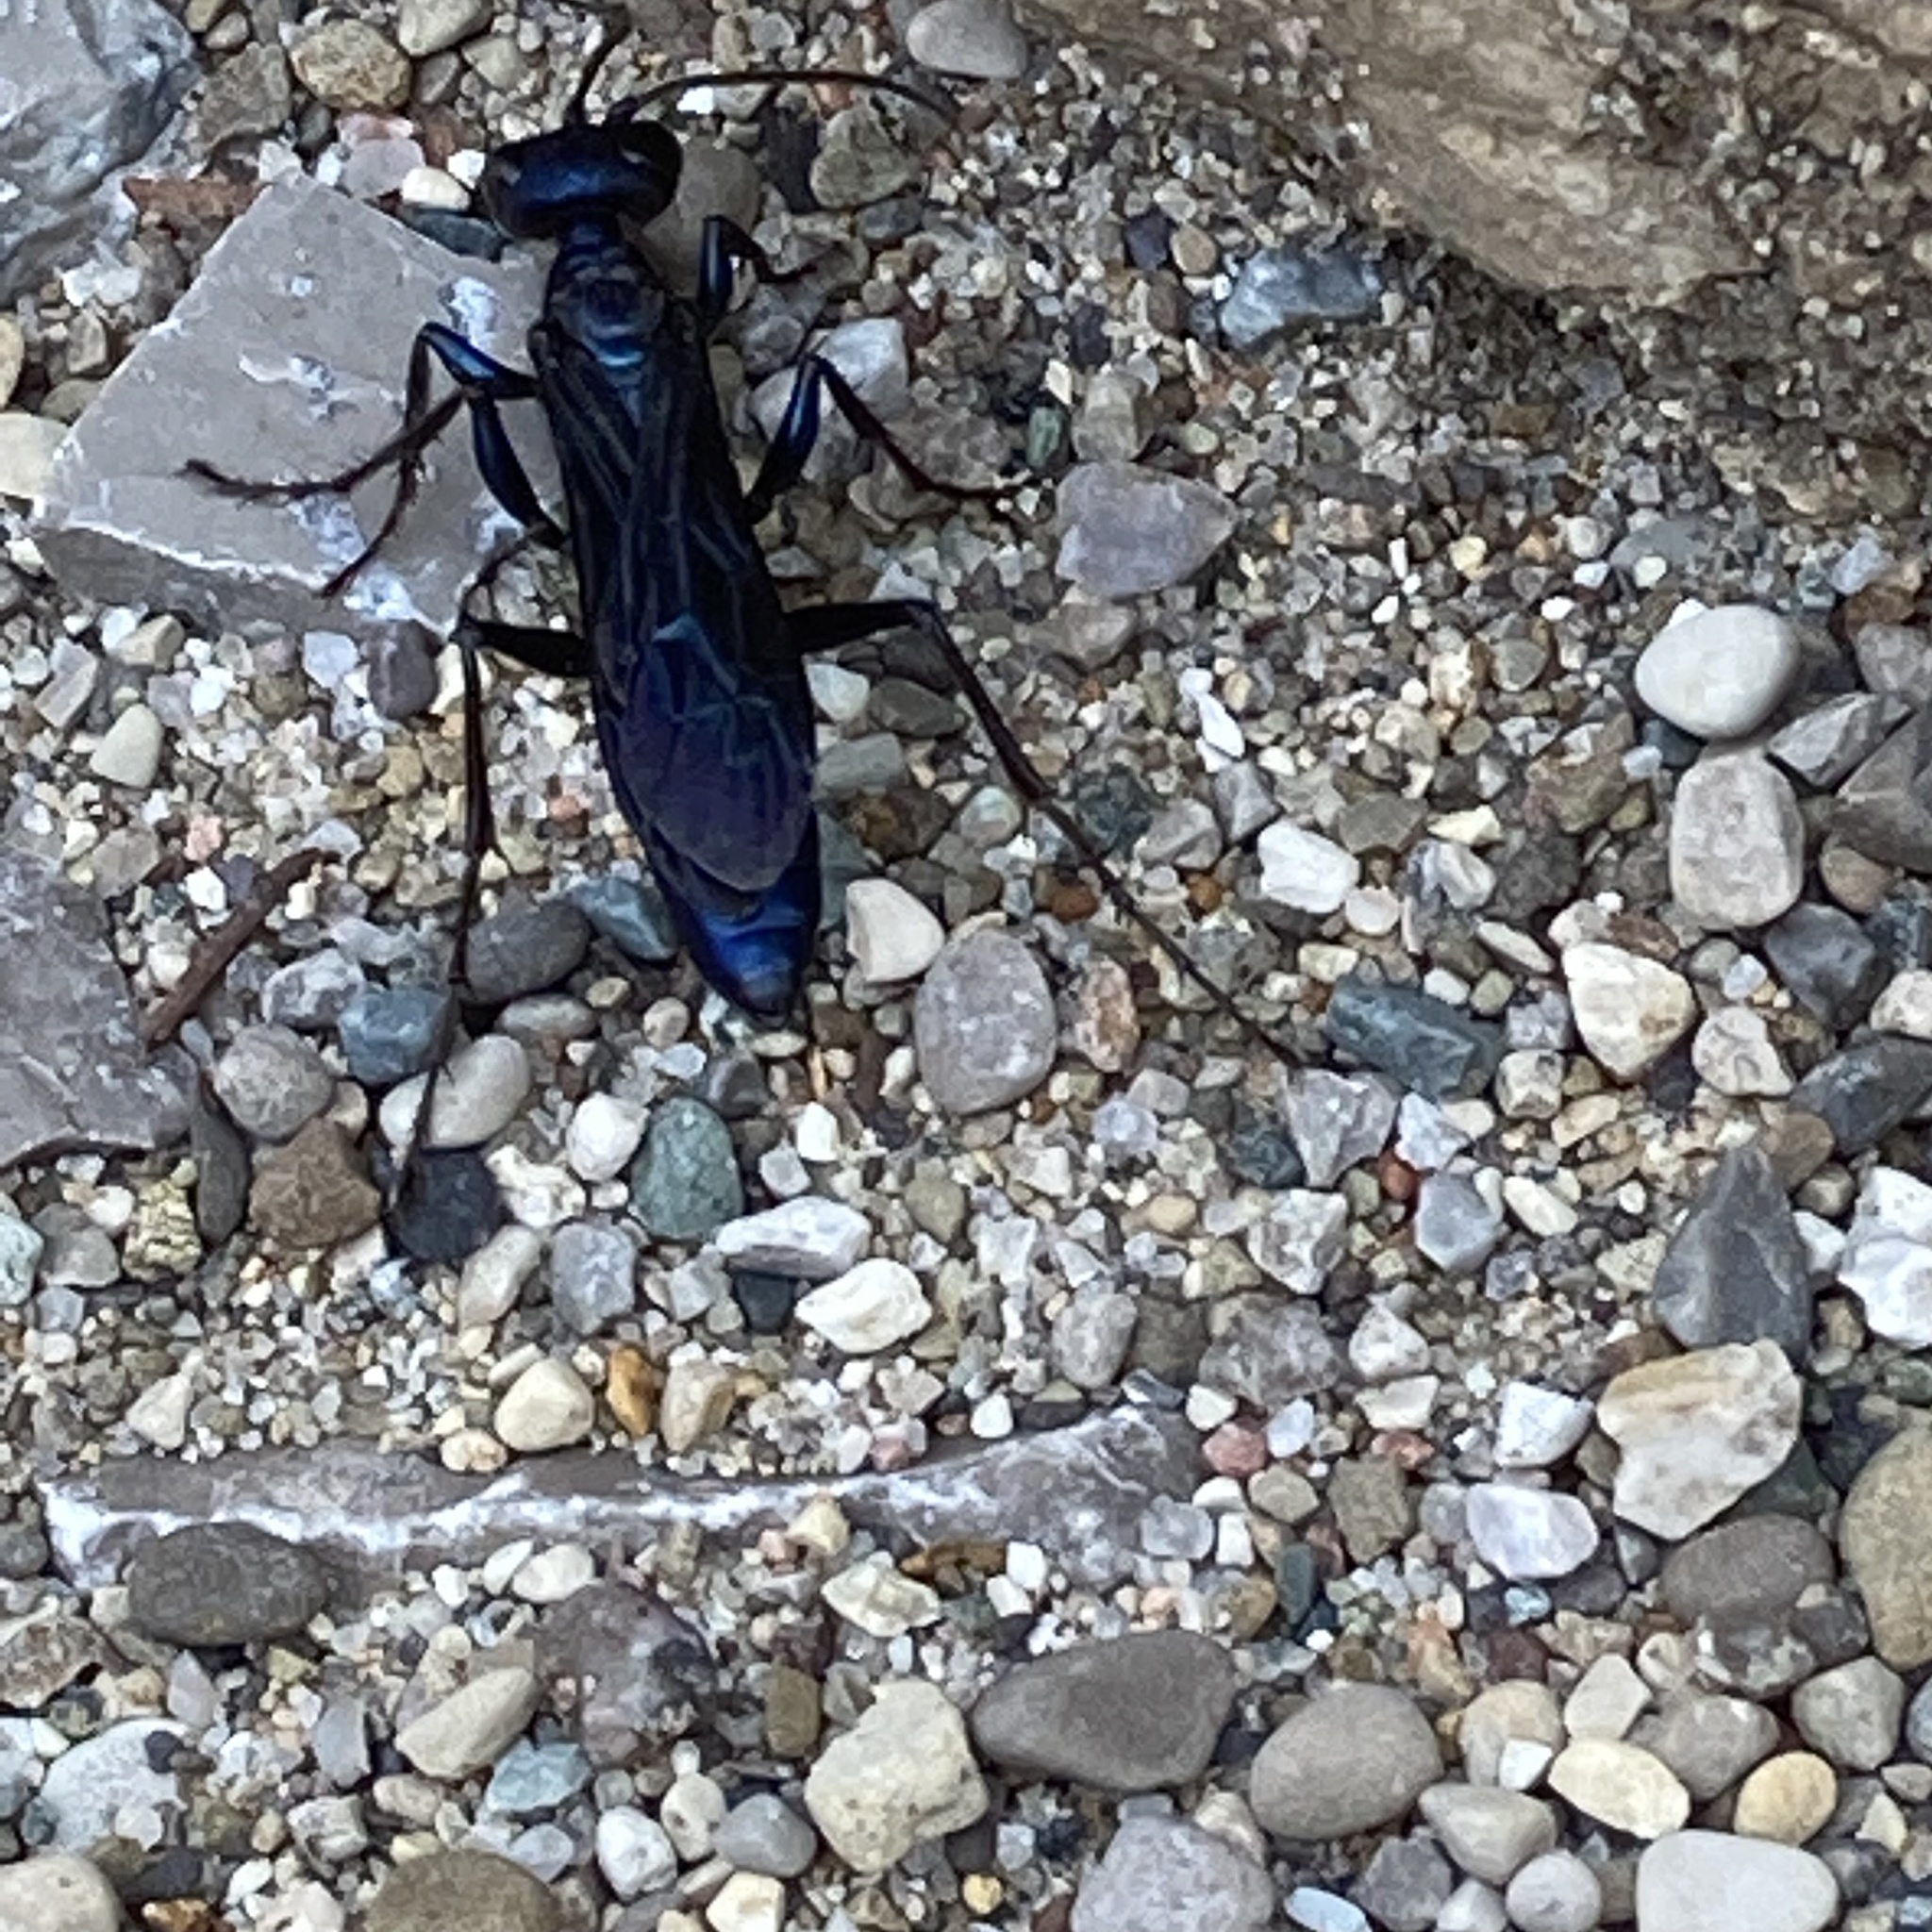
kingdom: Animalia
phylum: Arthropoda
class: Insecta
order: Hymenoptera
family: Sphecidae
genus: Chlorion
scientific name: Chlorion aerarium
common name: Steel-blue cricket hunter
